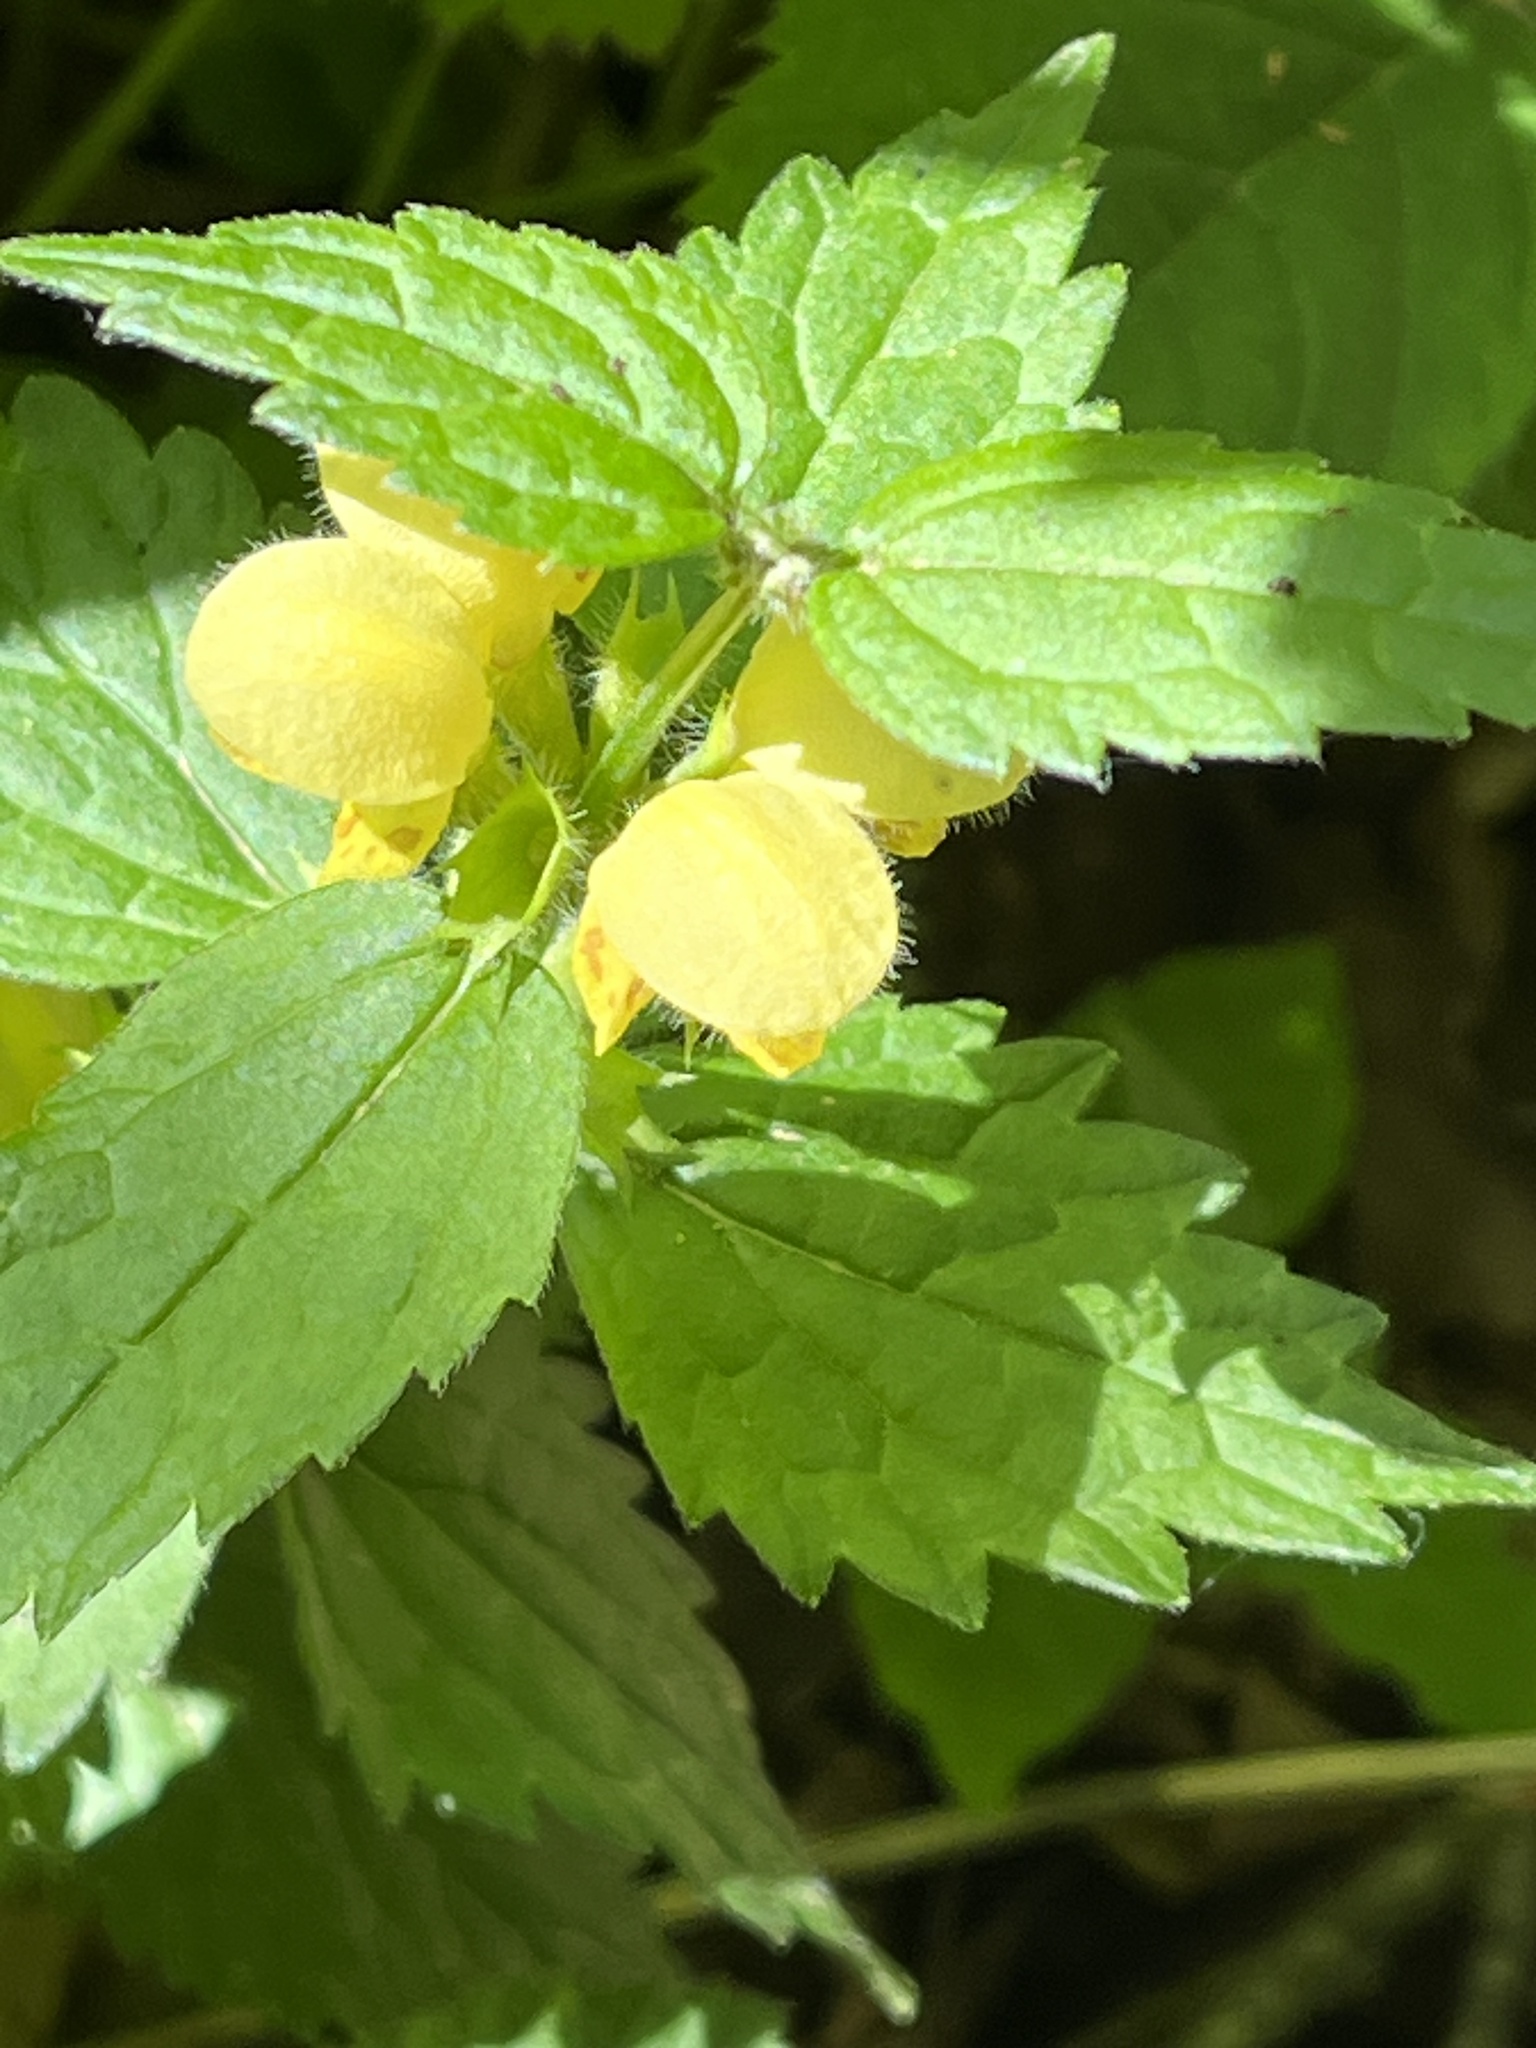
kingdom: Plantae
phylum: Tracheophyta
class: Magnoliopsida
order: Lamiales
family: Lamiaceae
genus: Lamium
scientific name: Lamium galeobdolon
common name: Yellow archangel
